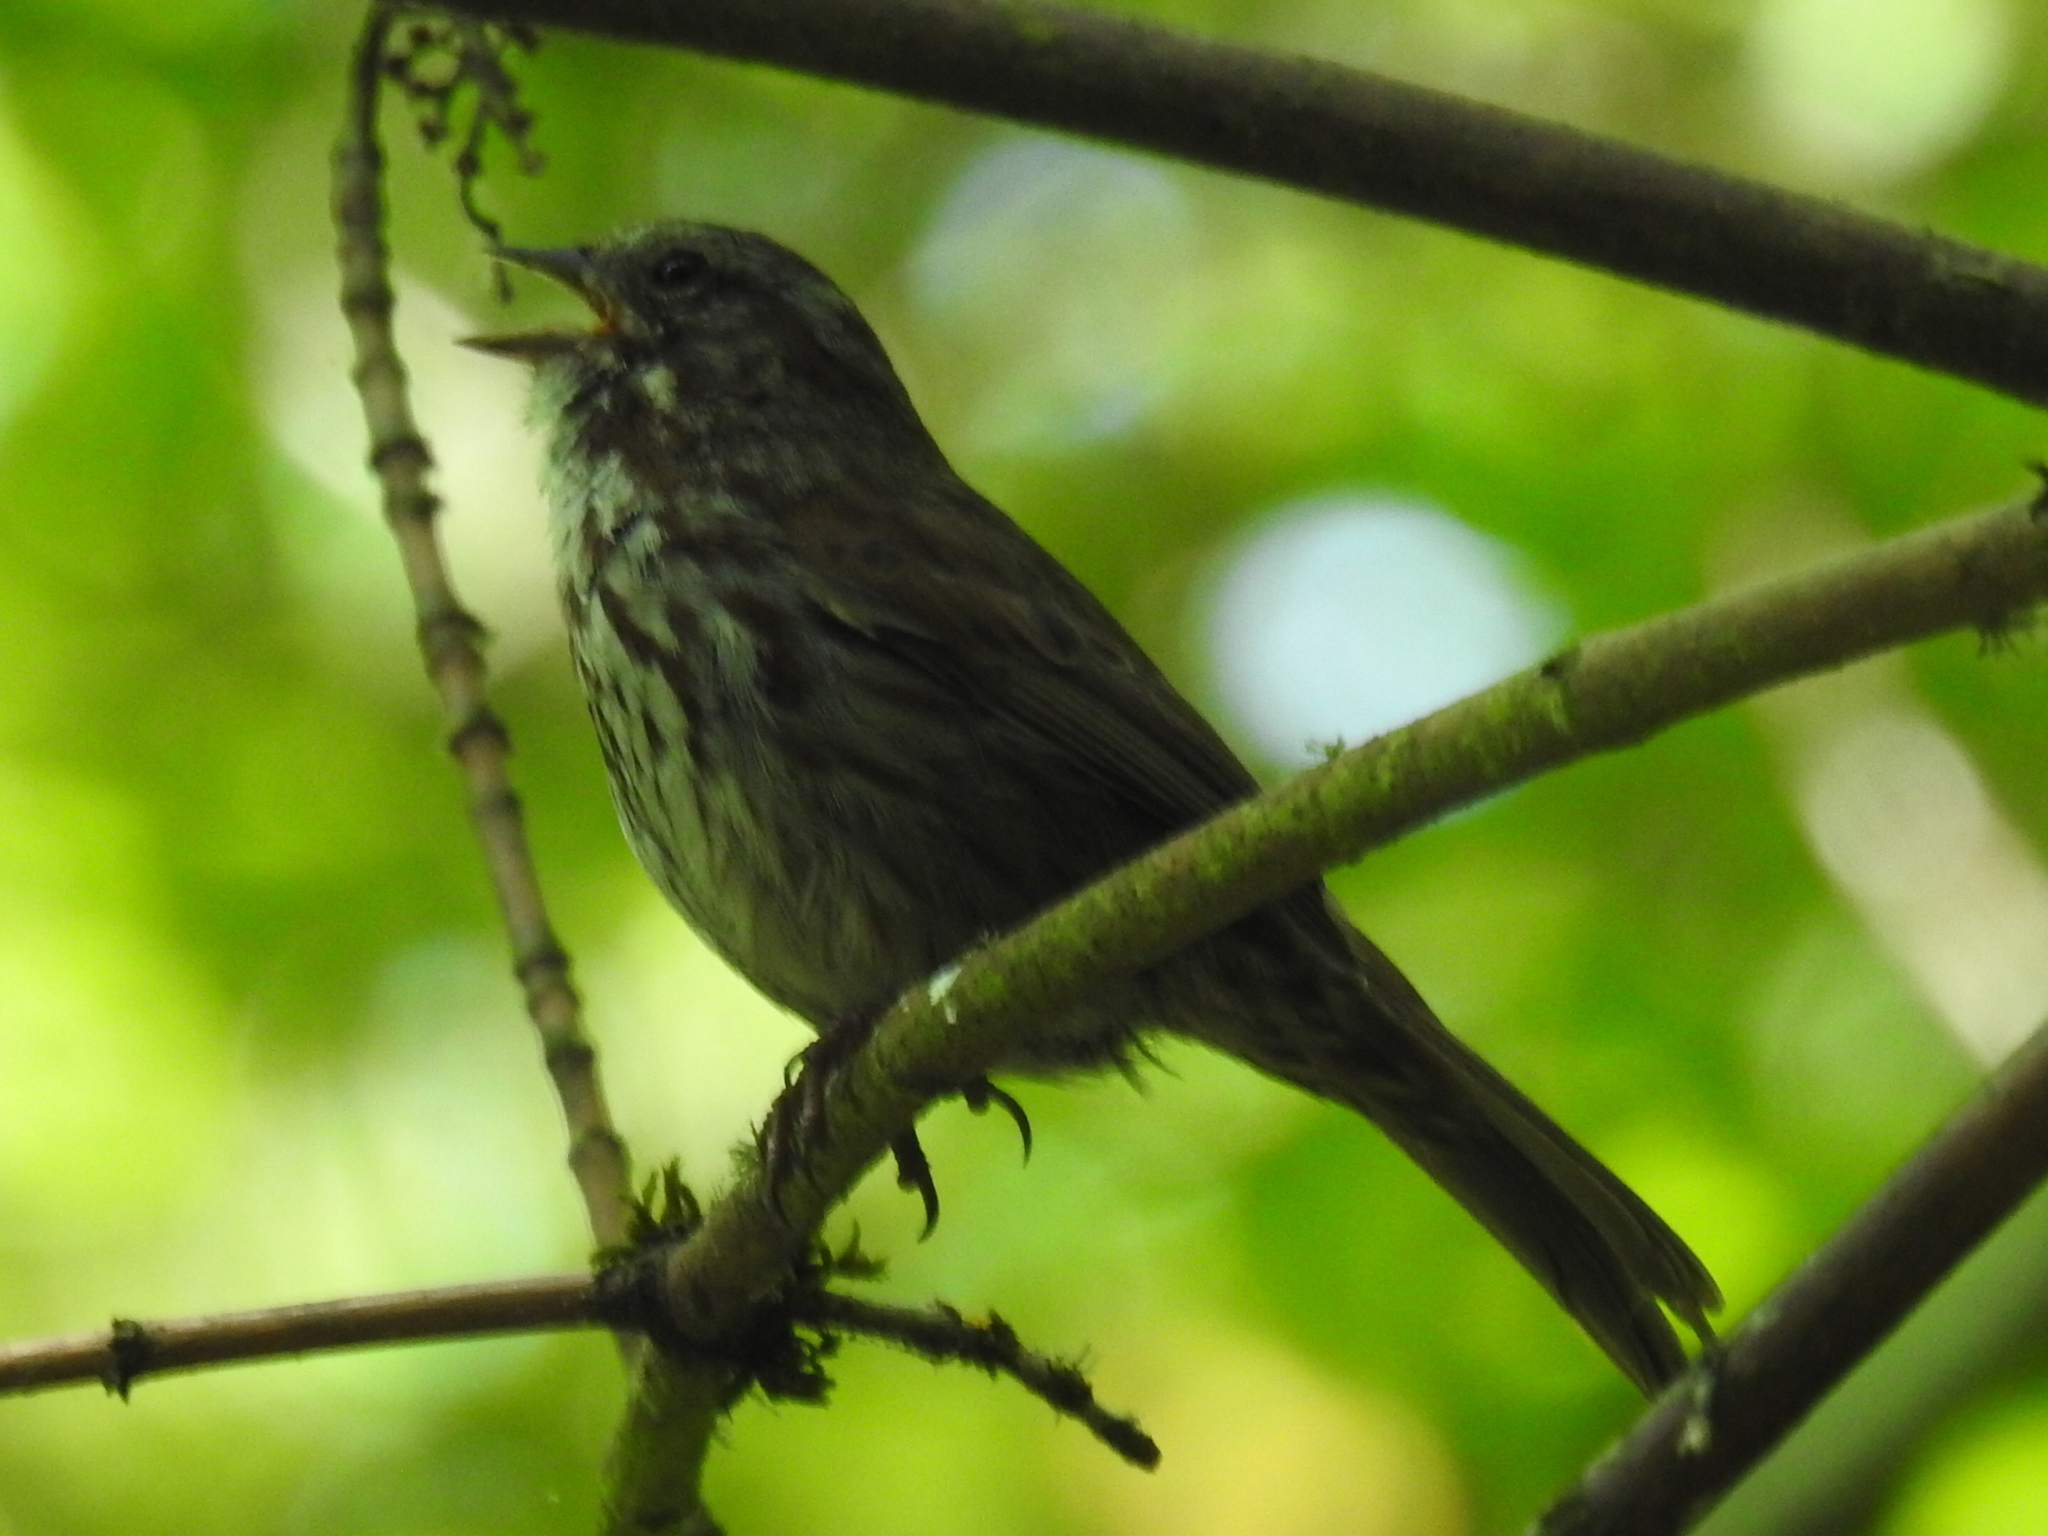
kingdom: Animalia
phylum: Chordata
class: Aves
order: Passeriformes
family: Passerellidae
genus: Melospiza
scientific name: Melospiza melodia
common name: Song sparrow
